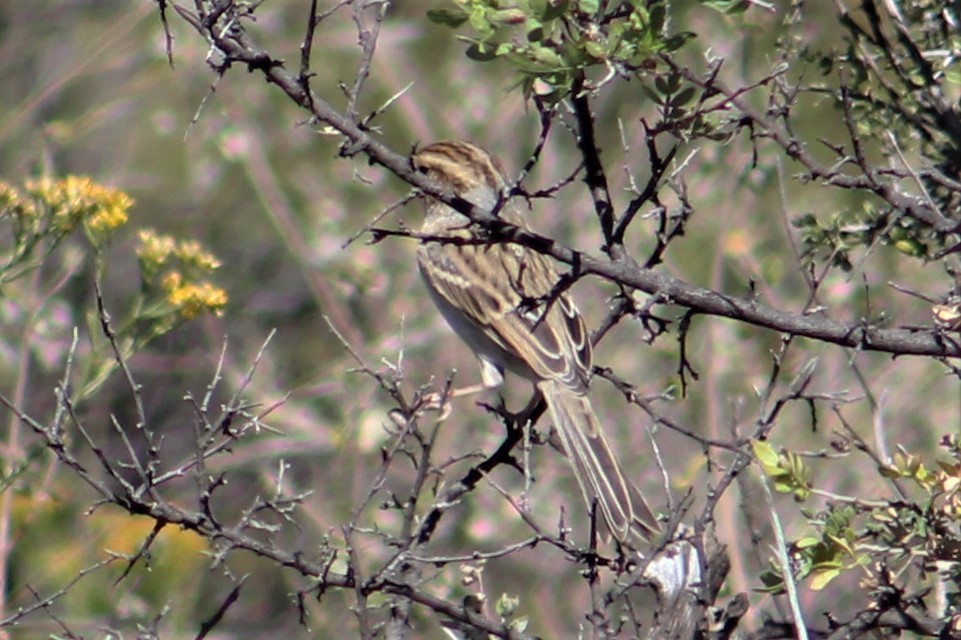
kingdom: Animalia
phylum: Chordata
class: Aves
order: Passeriformes
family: Passerellidae
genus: Spizella
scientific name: Spizella pallida
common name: Clay-colored sparrow
